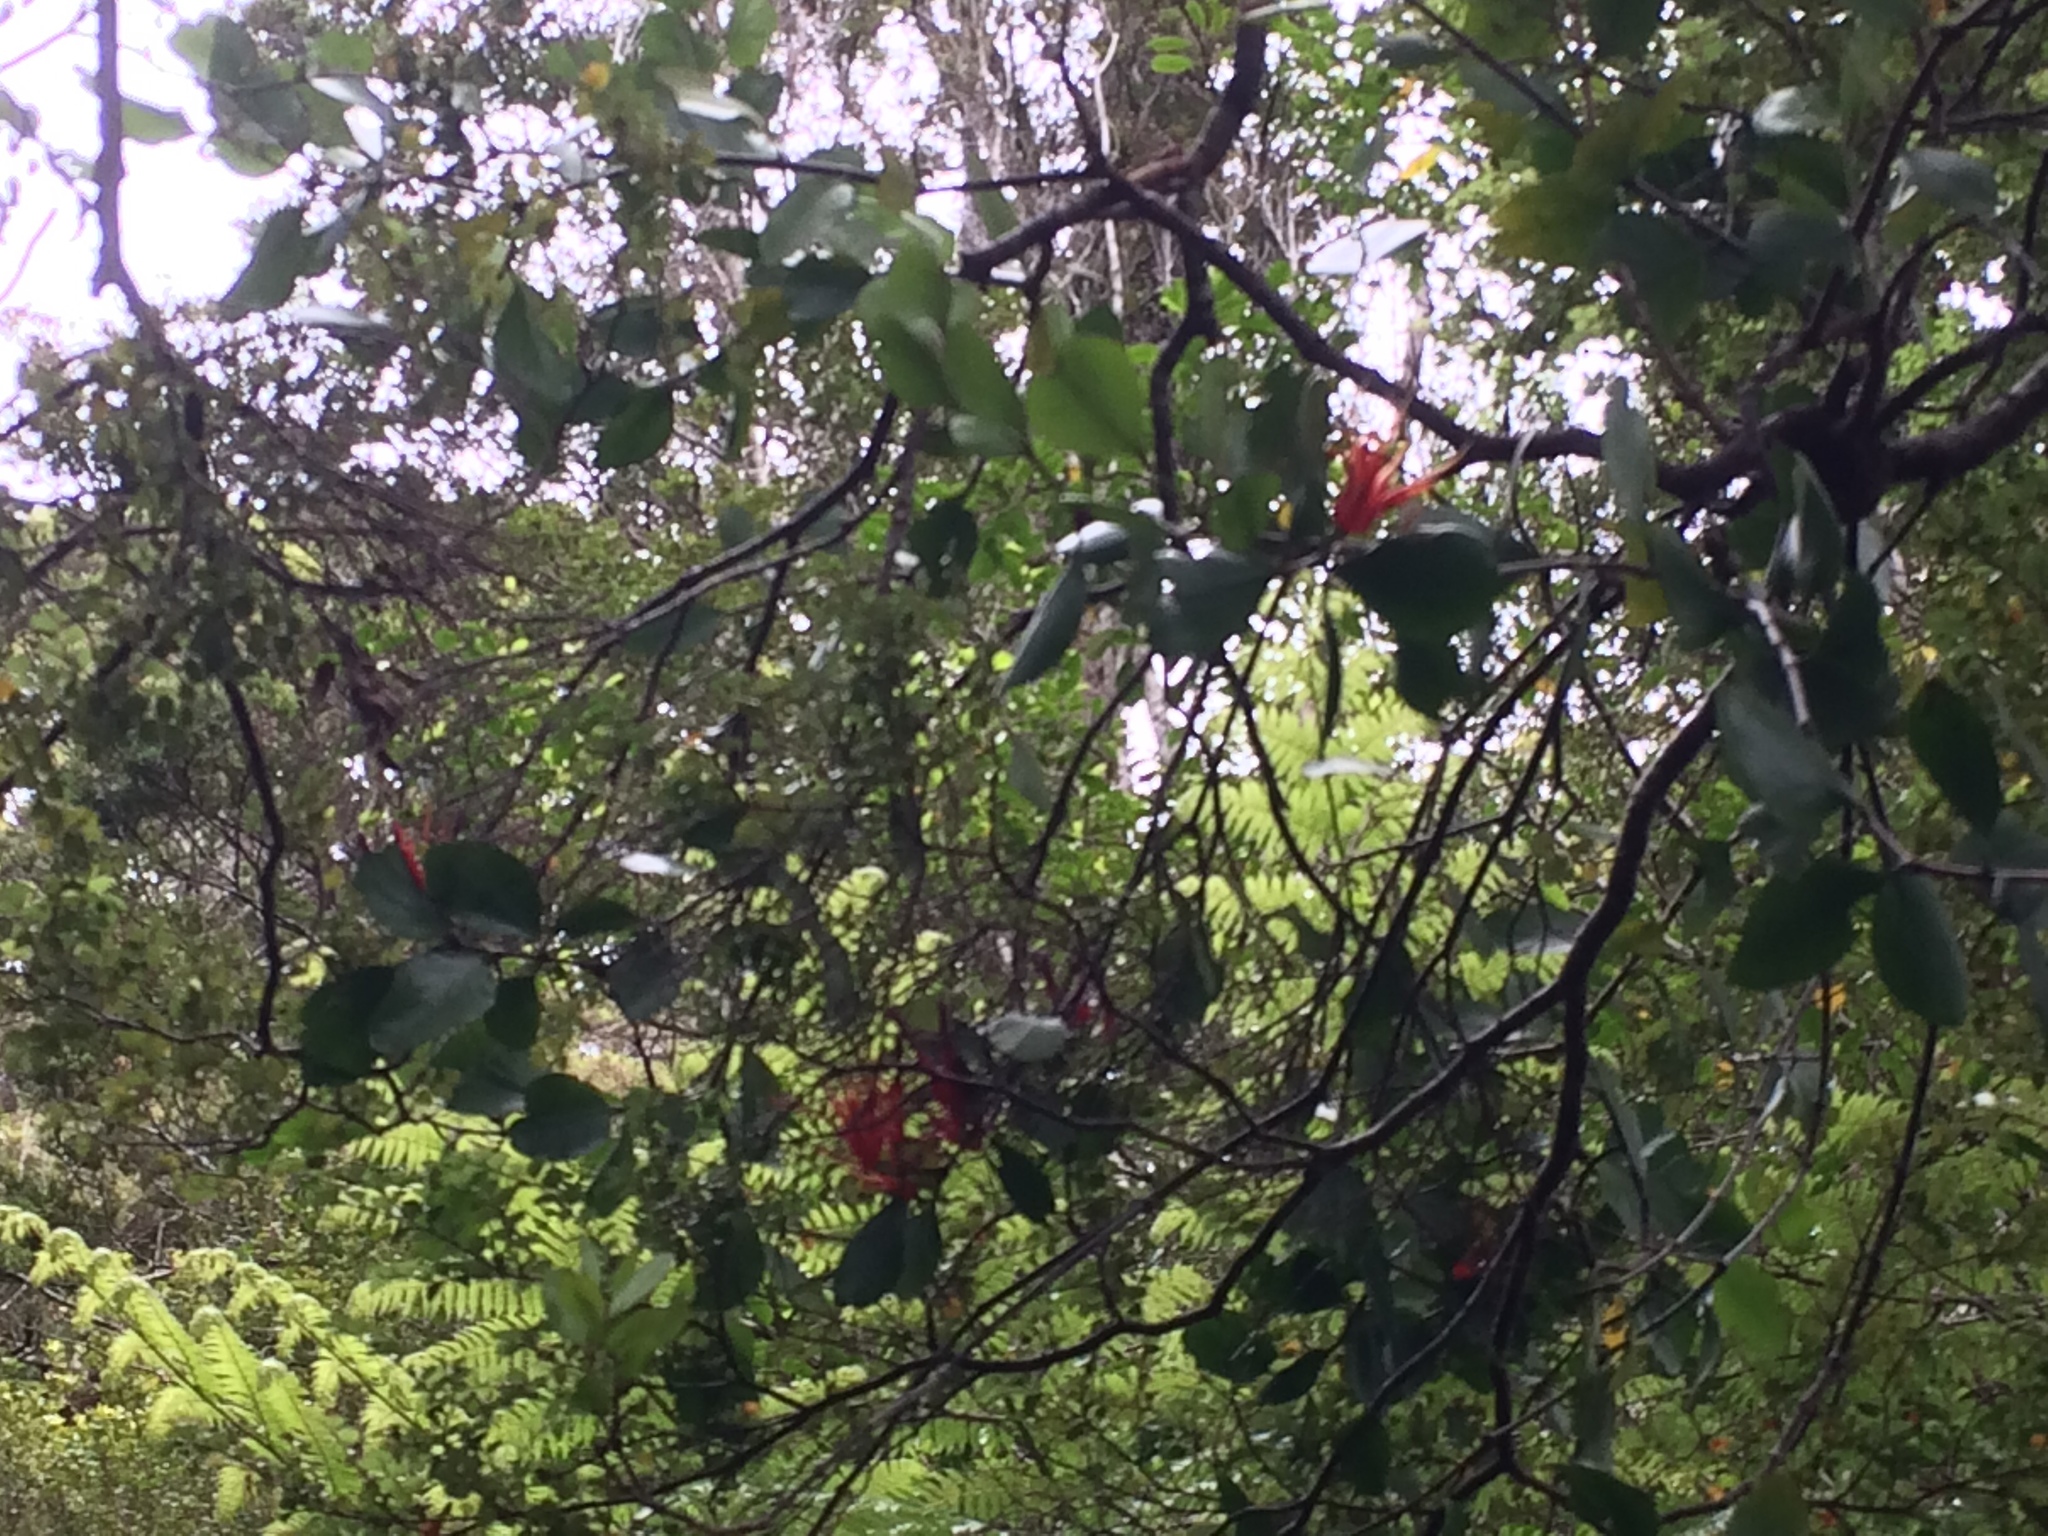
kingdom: Plantae
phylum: Tracheophyta
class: Magnoliopsida
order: Santalales
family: Loranthaceae
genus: Peraxilla
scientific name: Peraxilla colensoi
